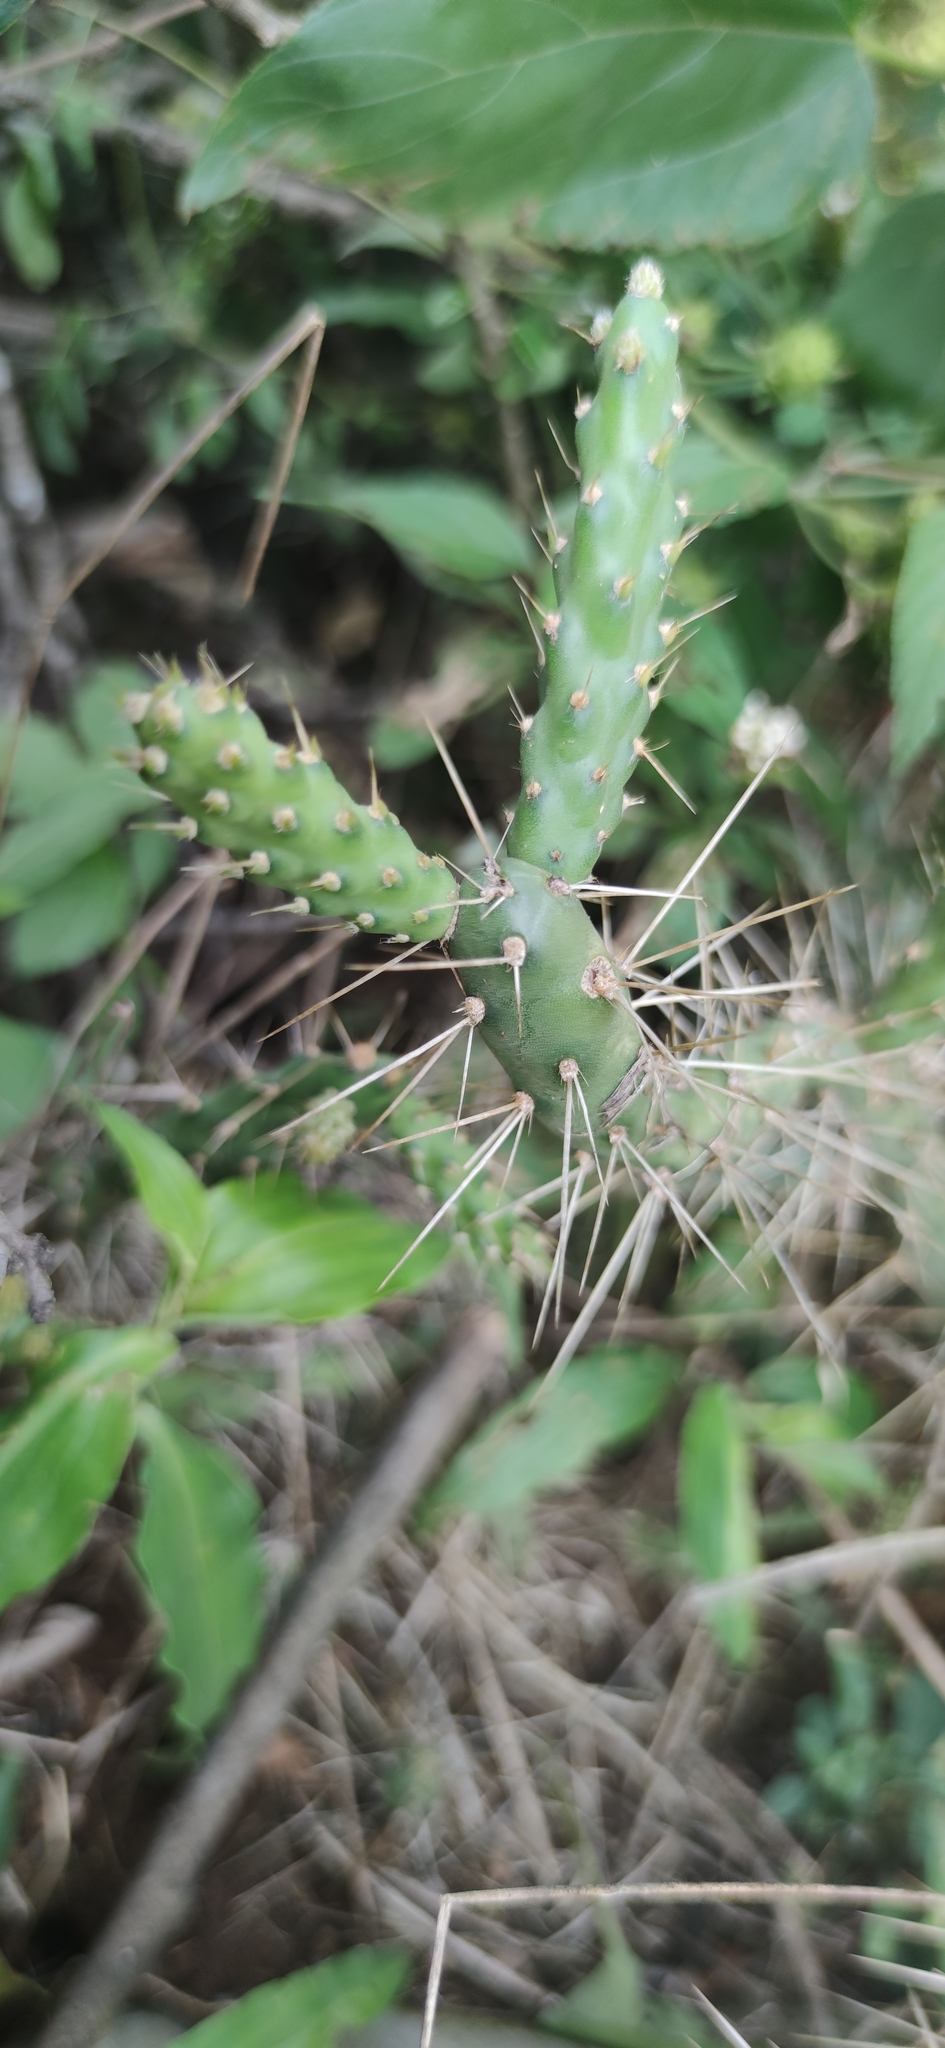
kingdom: Plantae
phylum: Tracheophyta
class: Magnoliopsida
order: Caryophyllales
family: Cactaceae
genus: Opuntia
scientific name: Opuntia pubescens
